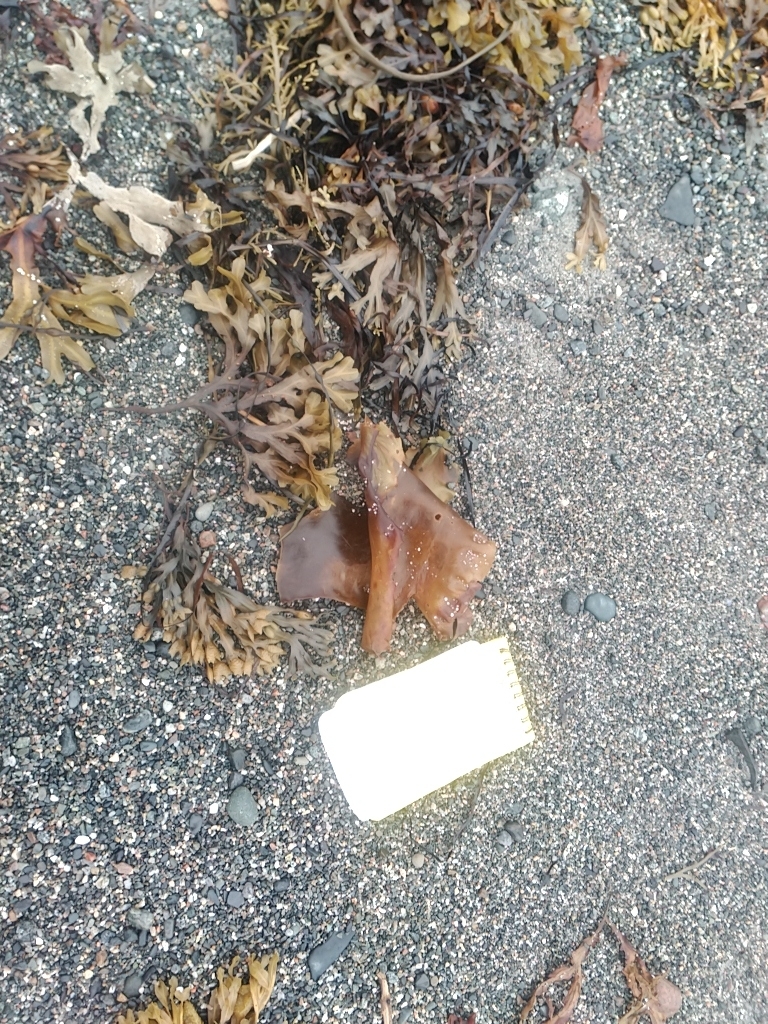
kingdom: Chromista
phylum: Ochrophyta
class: Phaeophyceae
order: Laminariales
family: Laminariaceae
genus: Saccharina
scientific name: Saccharina latissima
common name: Poor man's weather glass
